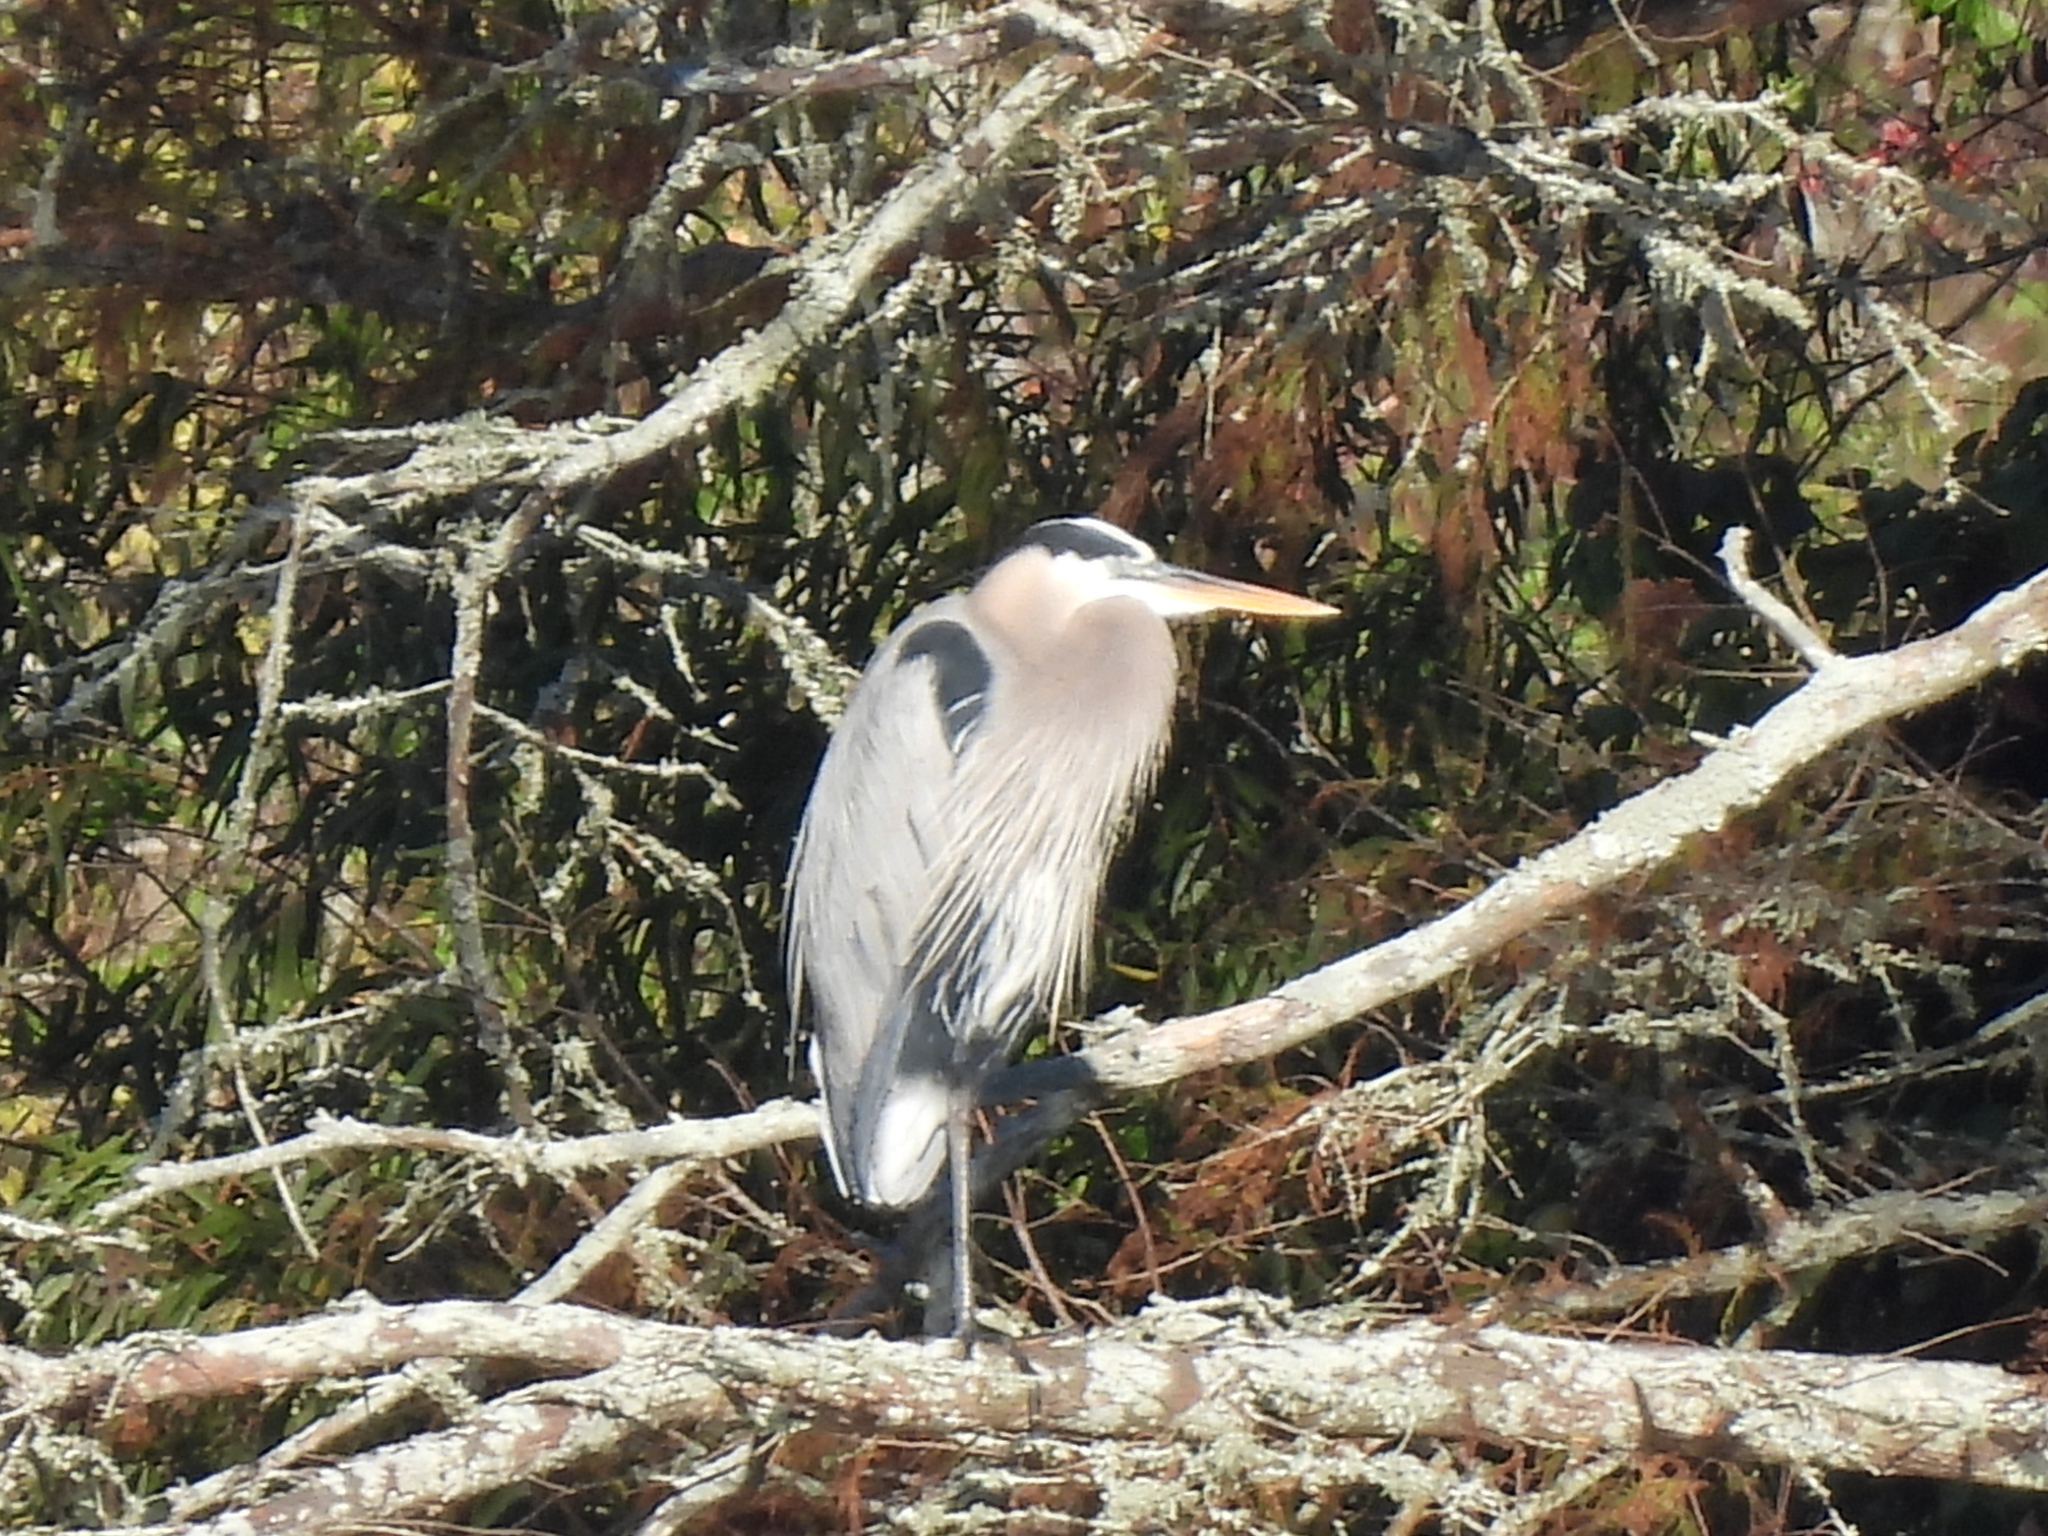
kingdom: Animalia
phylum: Chordata
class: Aves
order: Pelecaniformes
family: Ardeidae
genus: Ardea
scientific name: Ardea herodias
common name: Great blue heron
